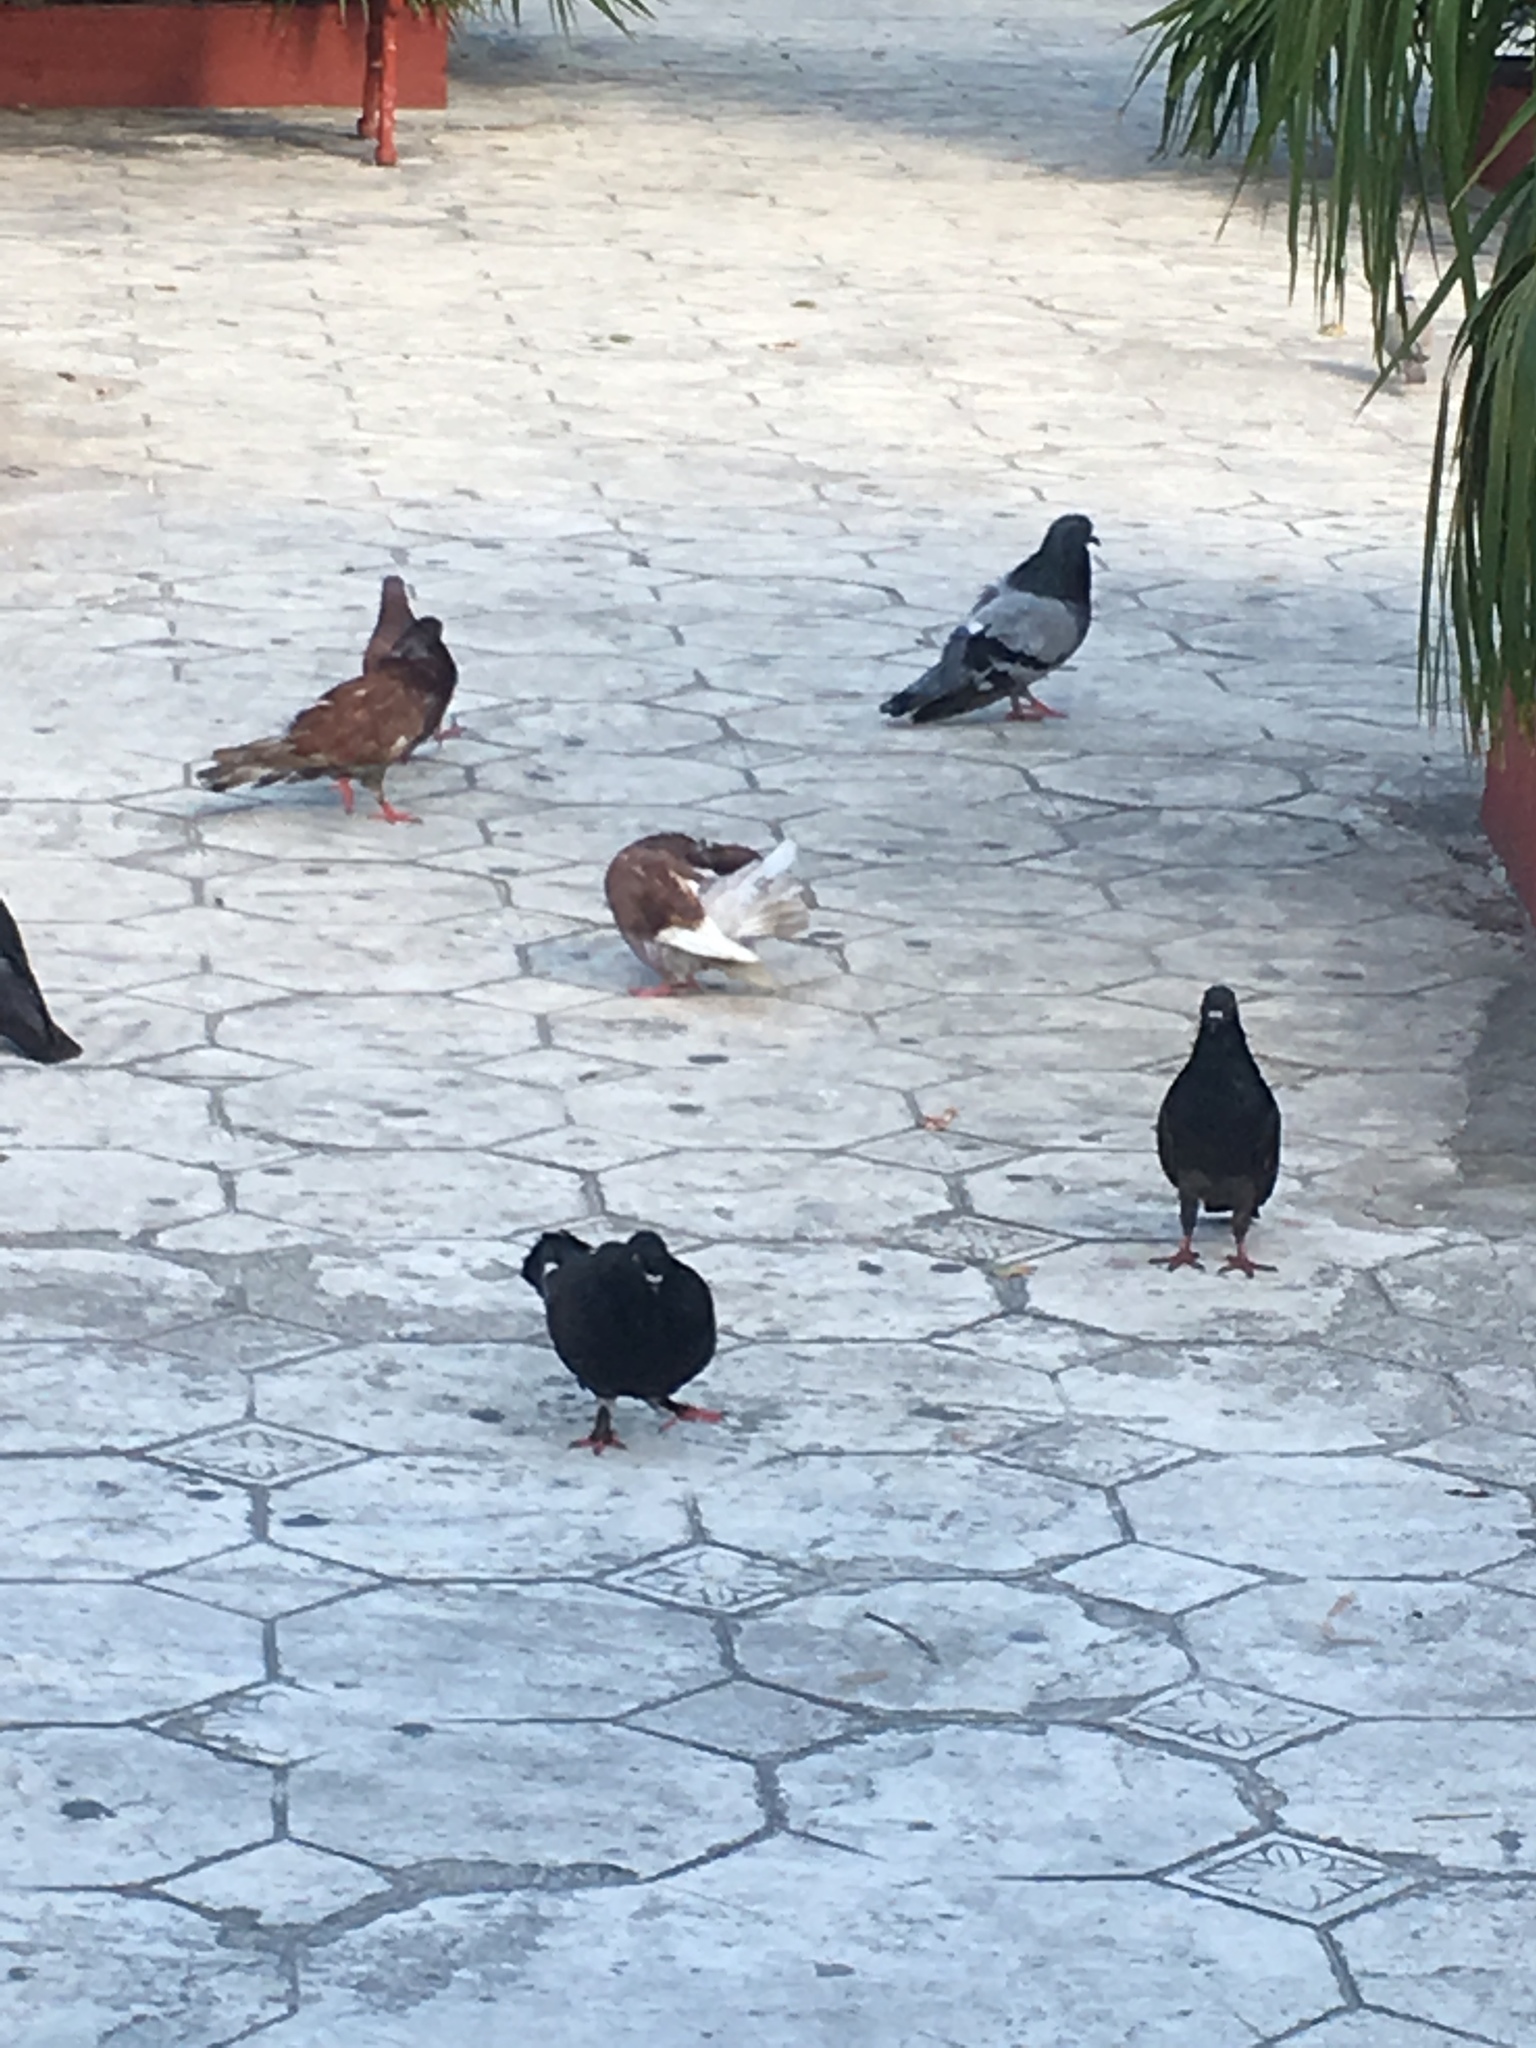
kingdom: Animalia
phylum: Chordata
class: Aves
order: Columbiformes
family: Columbidae
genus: Columba
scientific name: Columba livia
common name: Rock pigeon
